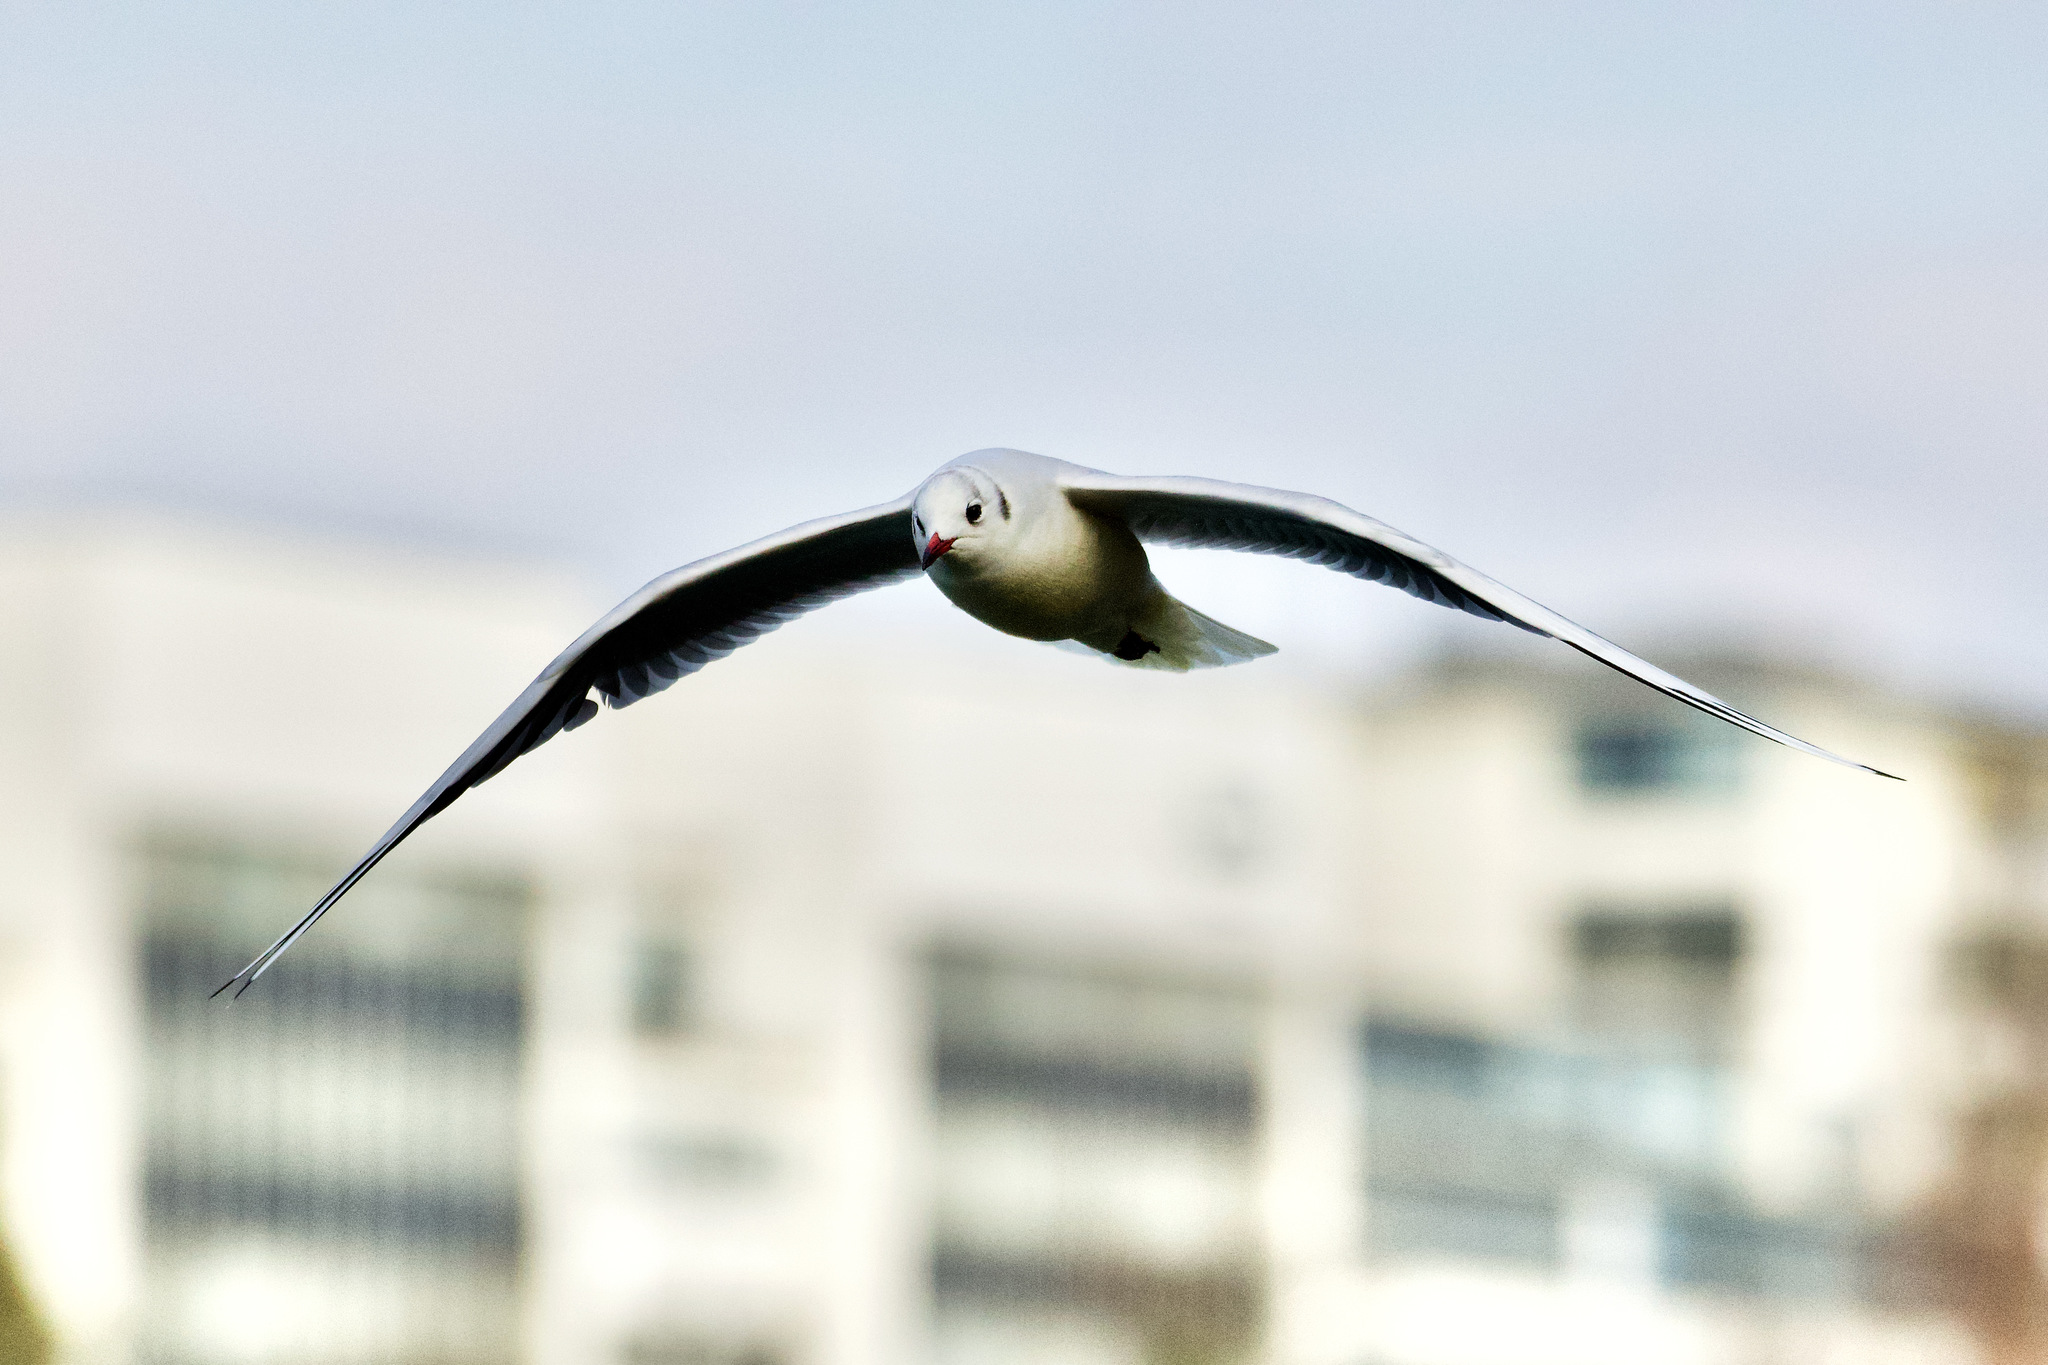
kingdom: Animalia
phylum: Chordata
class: Aves
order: Charadriiformes
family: Laridae
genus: Chroicocephalus
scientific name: Chroicocephalus ridibundus
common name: Black-headed gull
